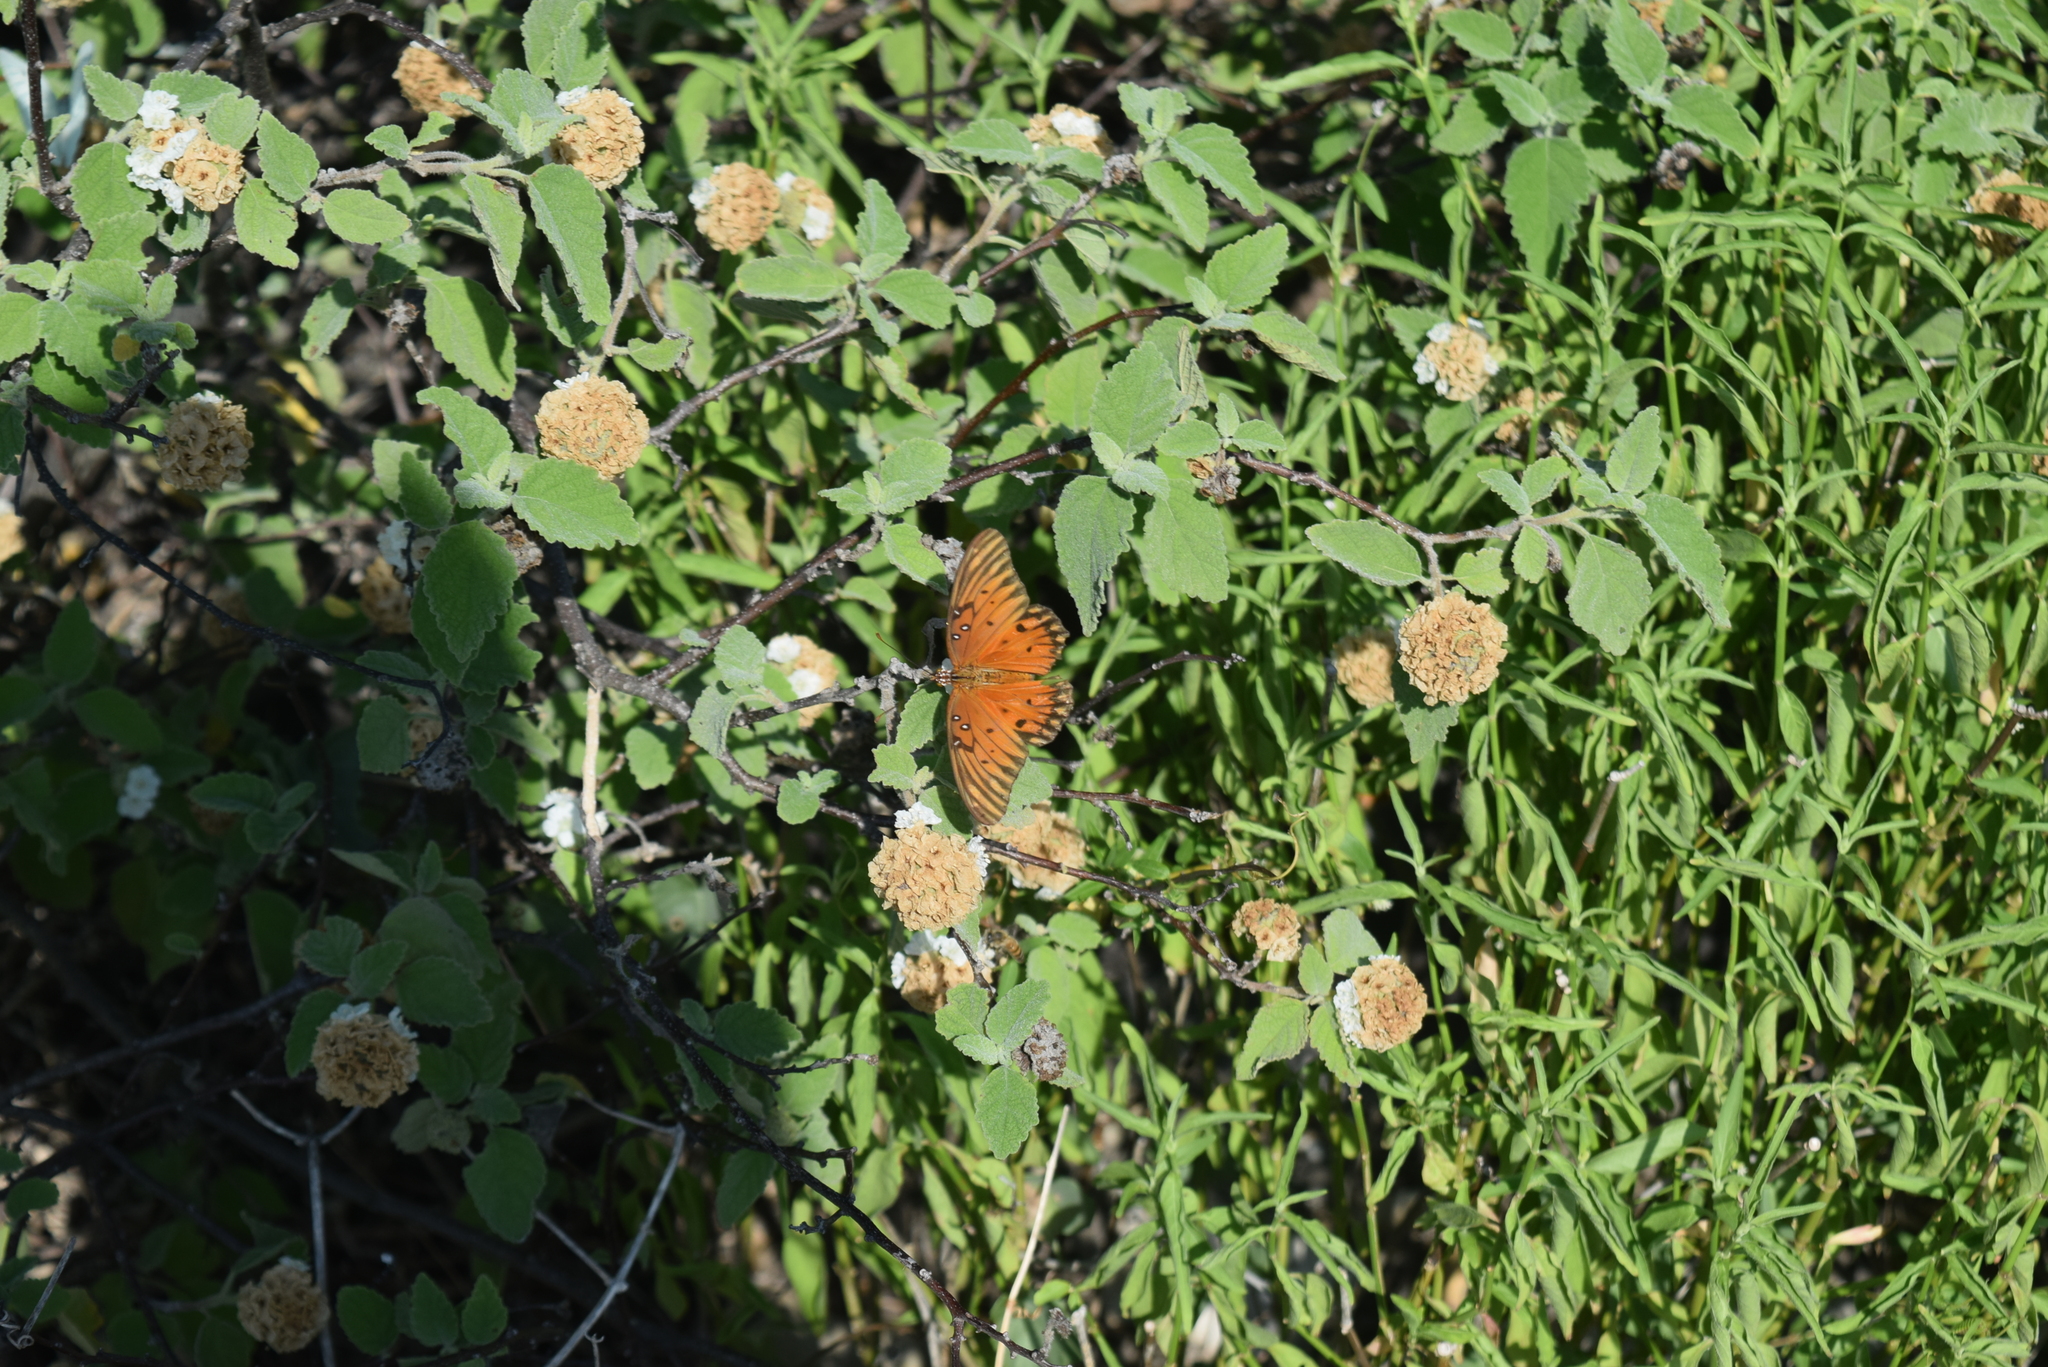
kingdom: Animalia
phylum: Arthropoda
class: Insecta
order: Lepidoptera
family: Nymphalidae
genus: Dione
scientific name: Dione vanillae
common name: Gulf fritillary
